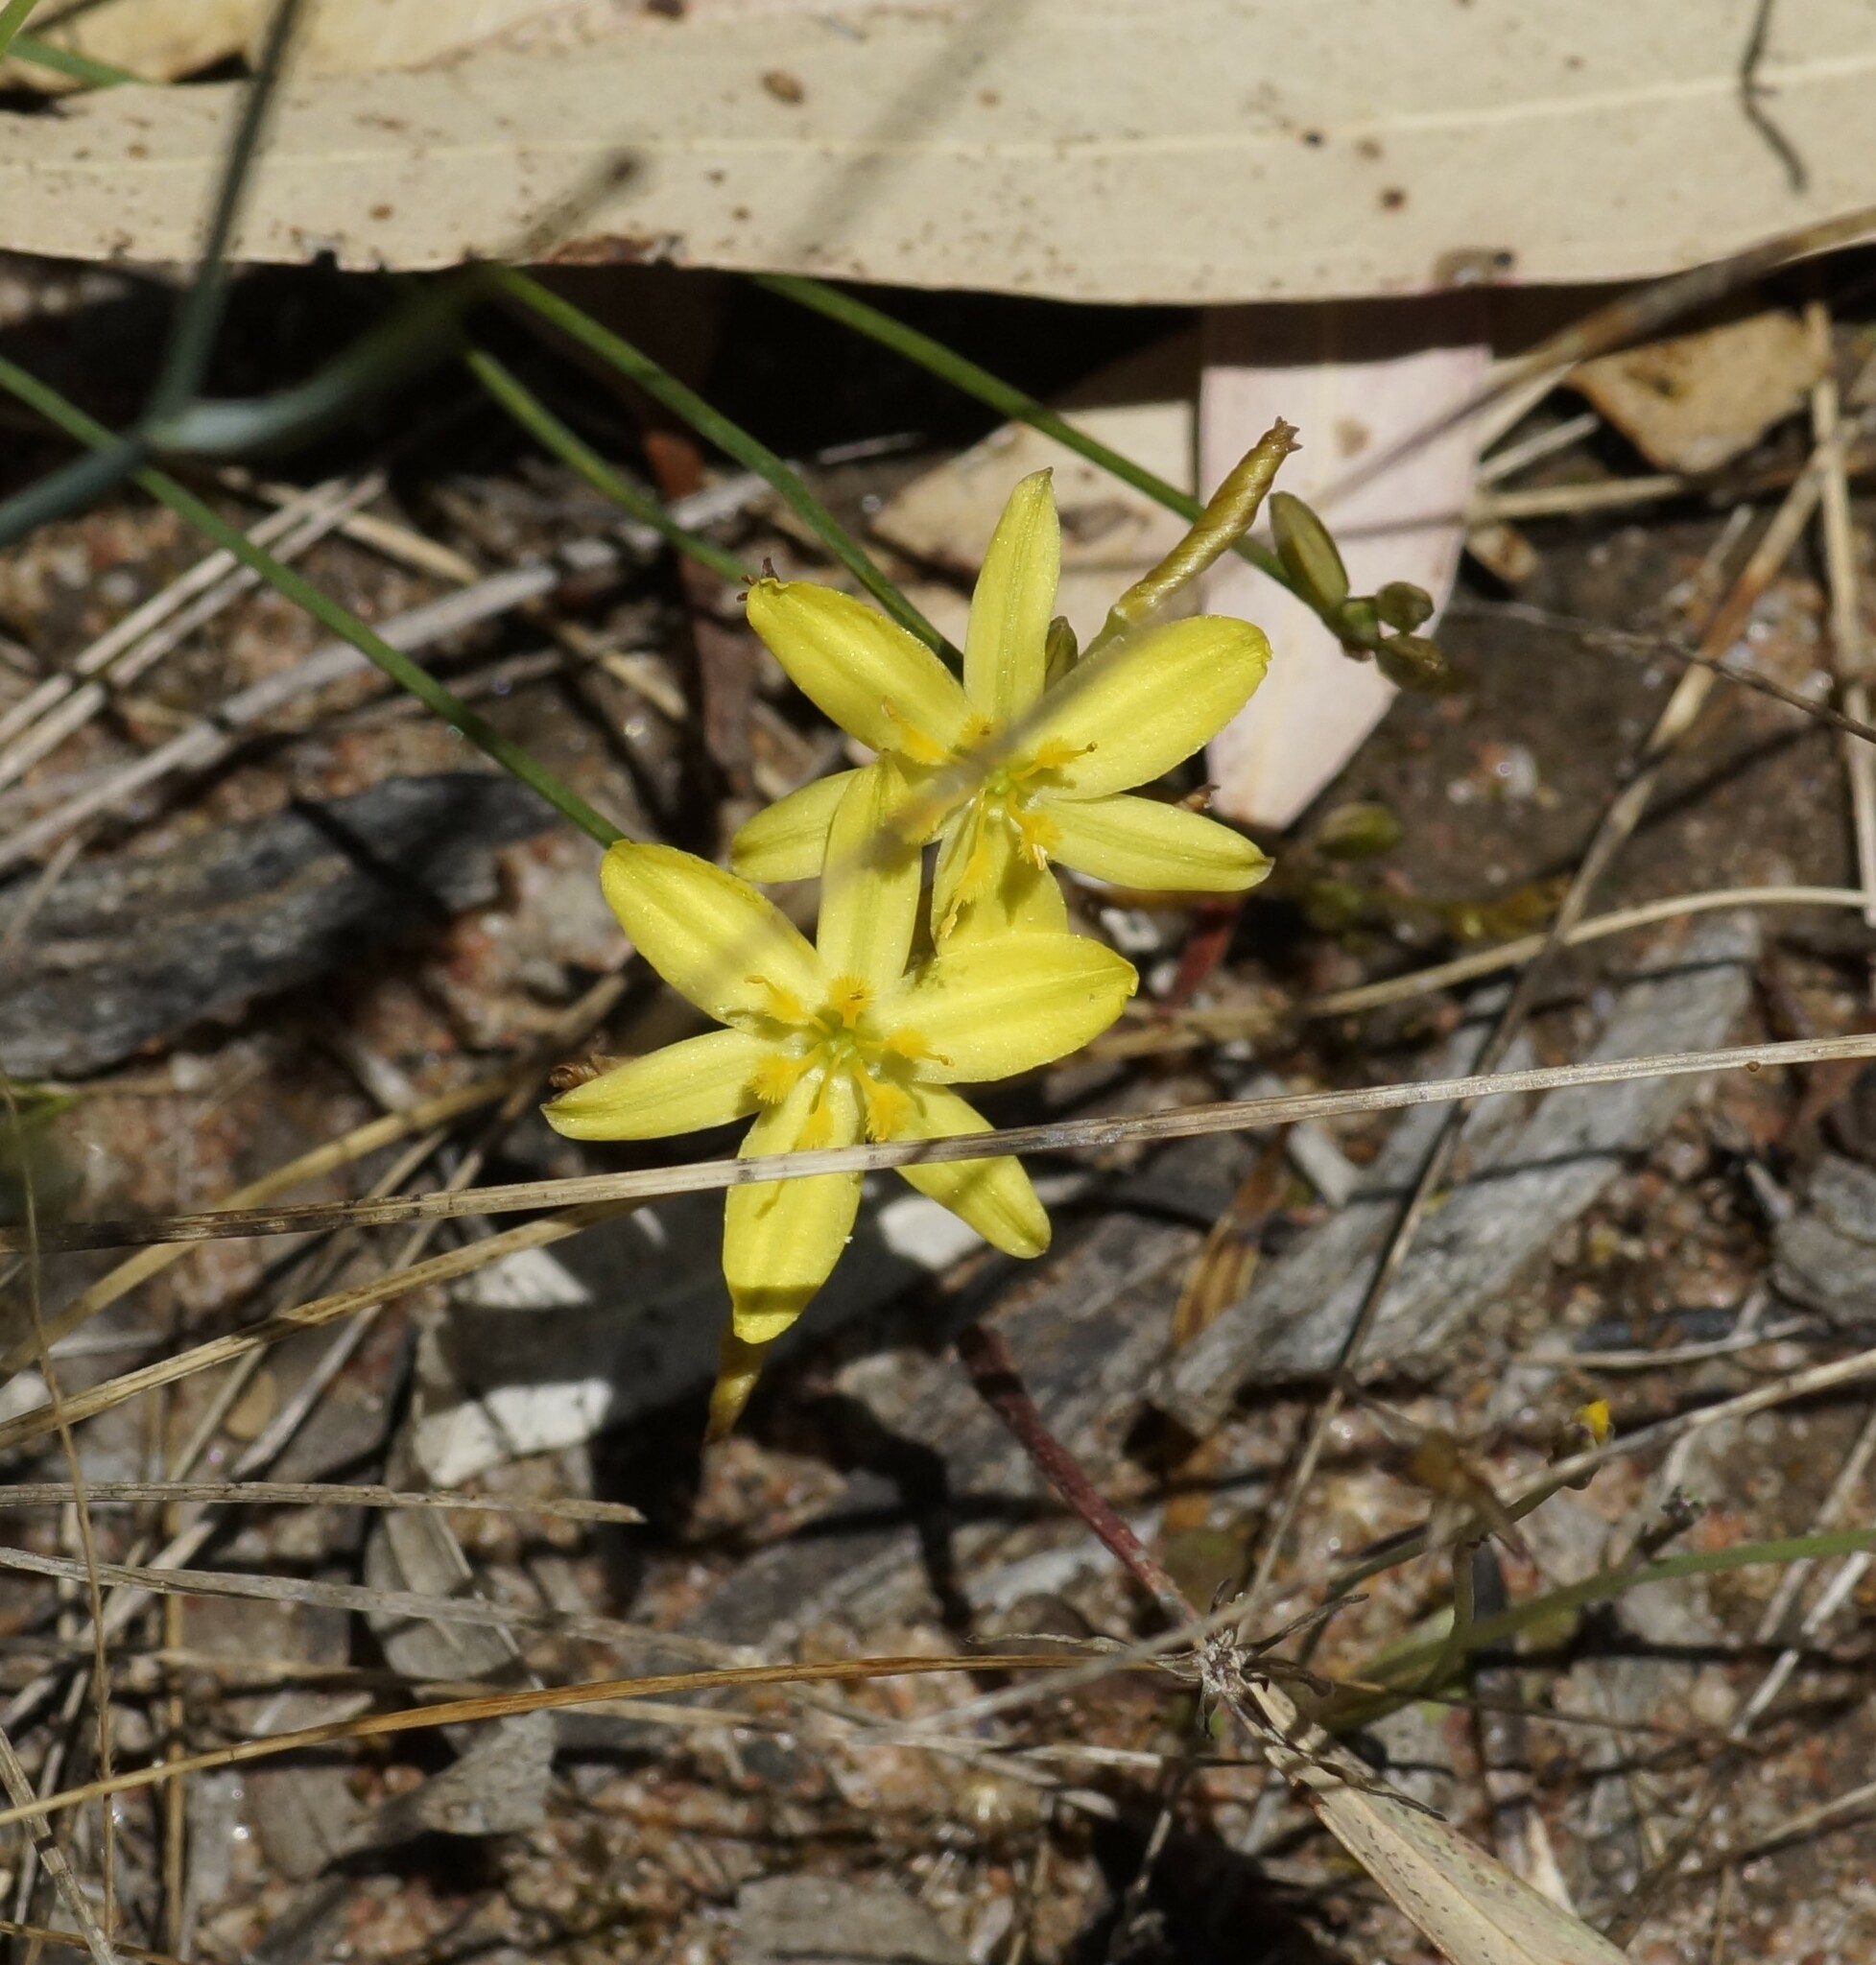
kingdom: Plantae
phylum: Tracheophyta
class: Liliopsida
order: Asparagales
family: Asphodelaceae
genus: Tricoryne
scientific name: Tricoryne elatior
